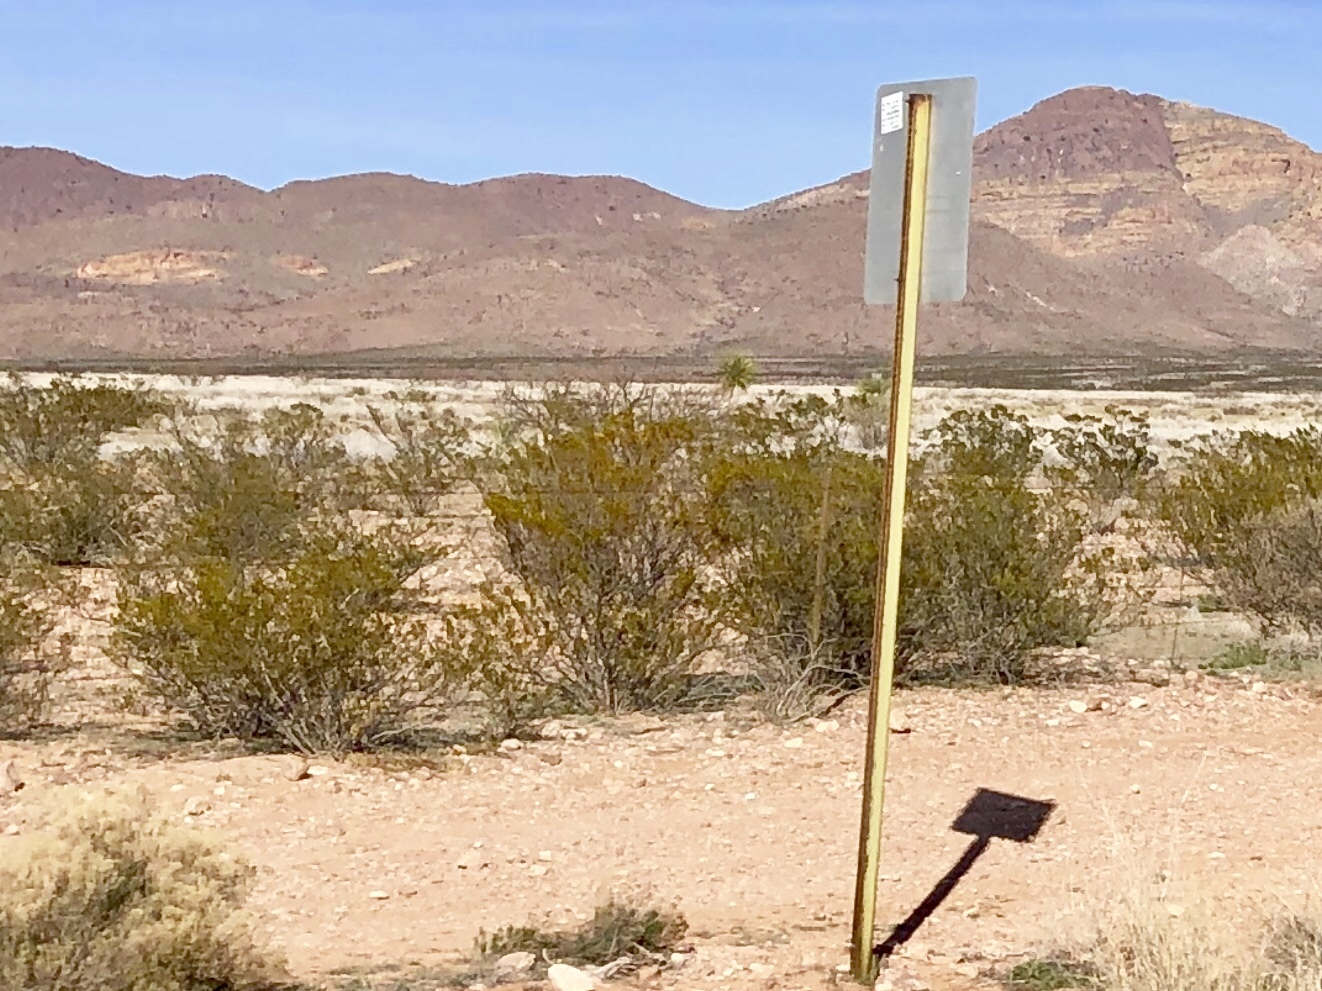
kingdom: Plantae
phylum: Tracheophyta
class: Magnoliopsida
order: Zygophyllales
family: Zygophyllaceae
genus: Larrea
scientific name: Larrea tridentata
